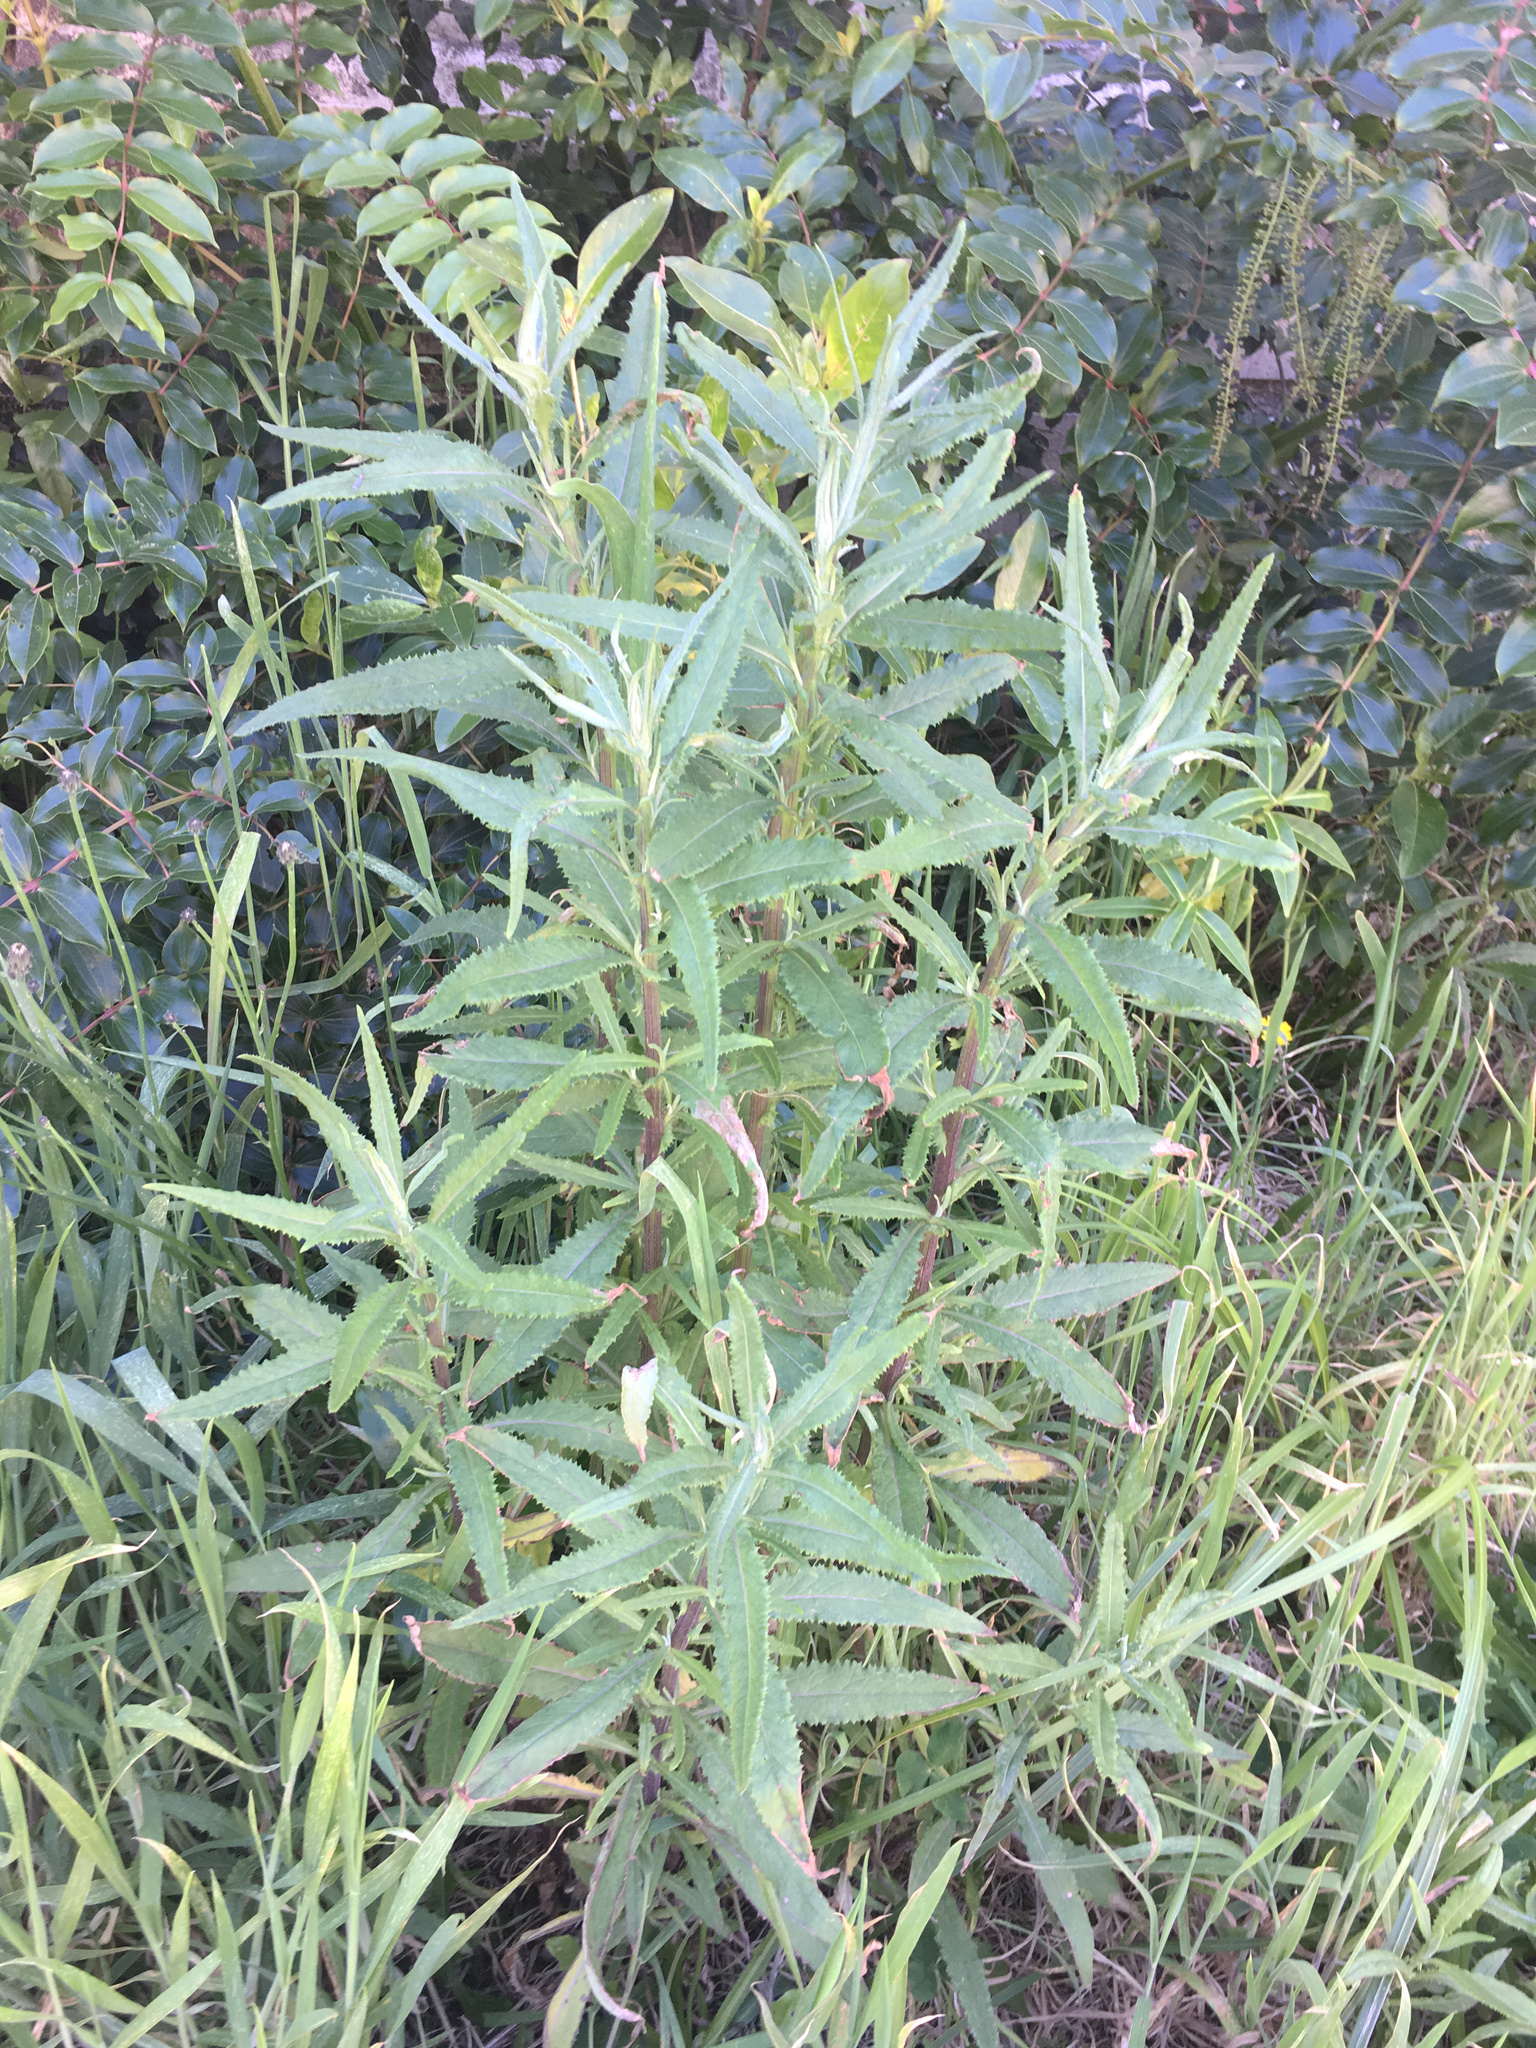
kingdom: Plantae
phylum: Tracheophyta
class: Magnoliopsida
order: Asterales
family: Asteraceae
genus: Senecio
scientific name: Senecio minimus
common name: Toothed fireweed
